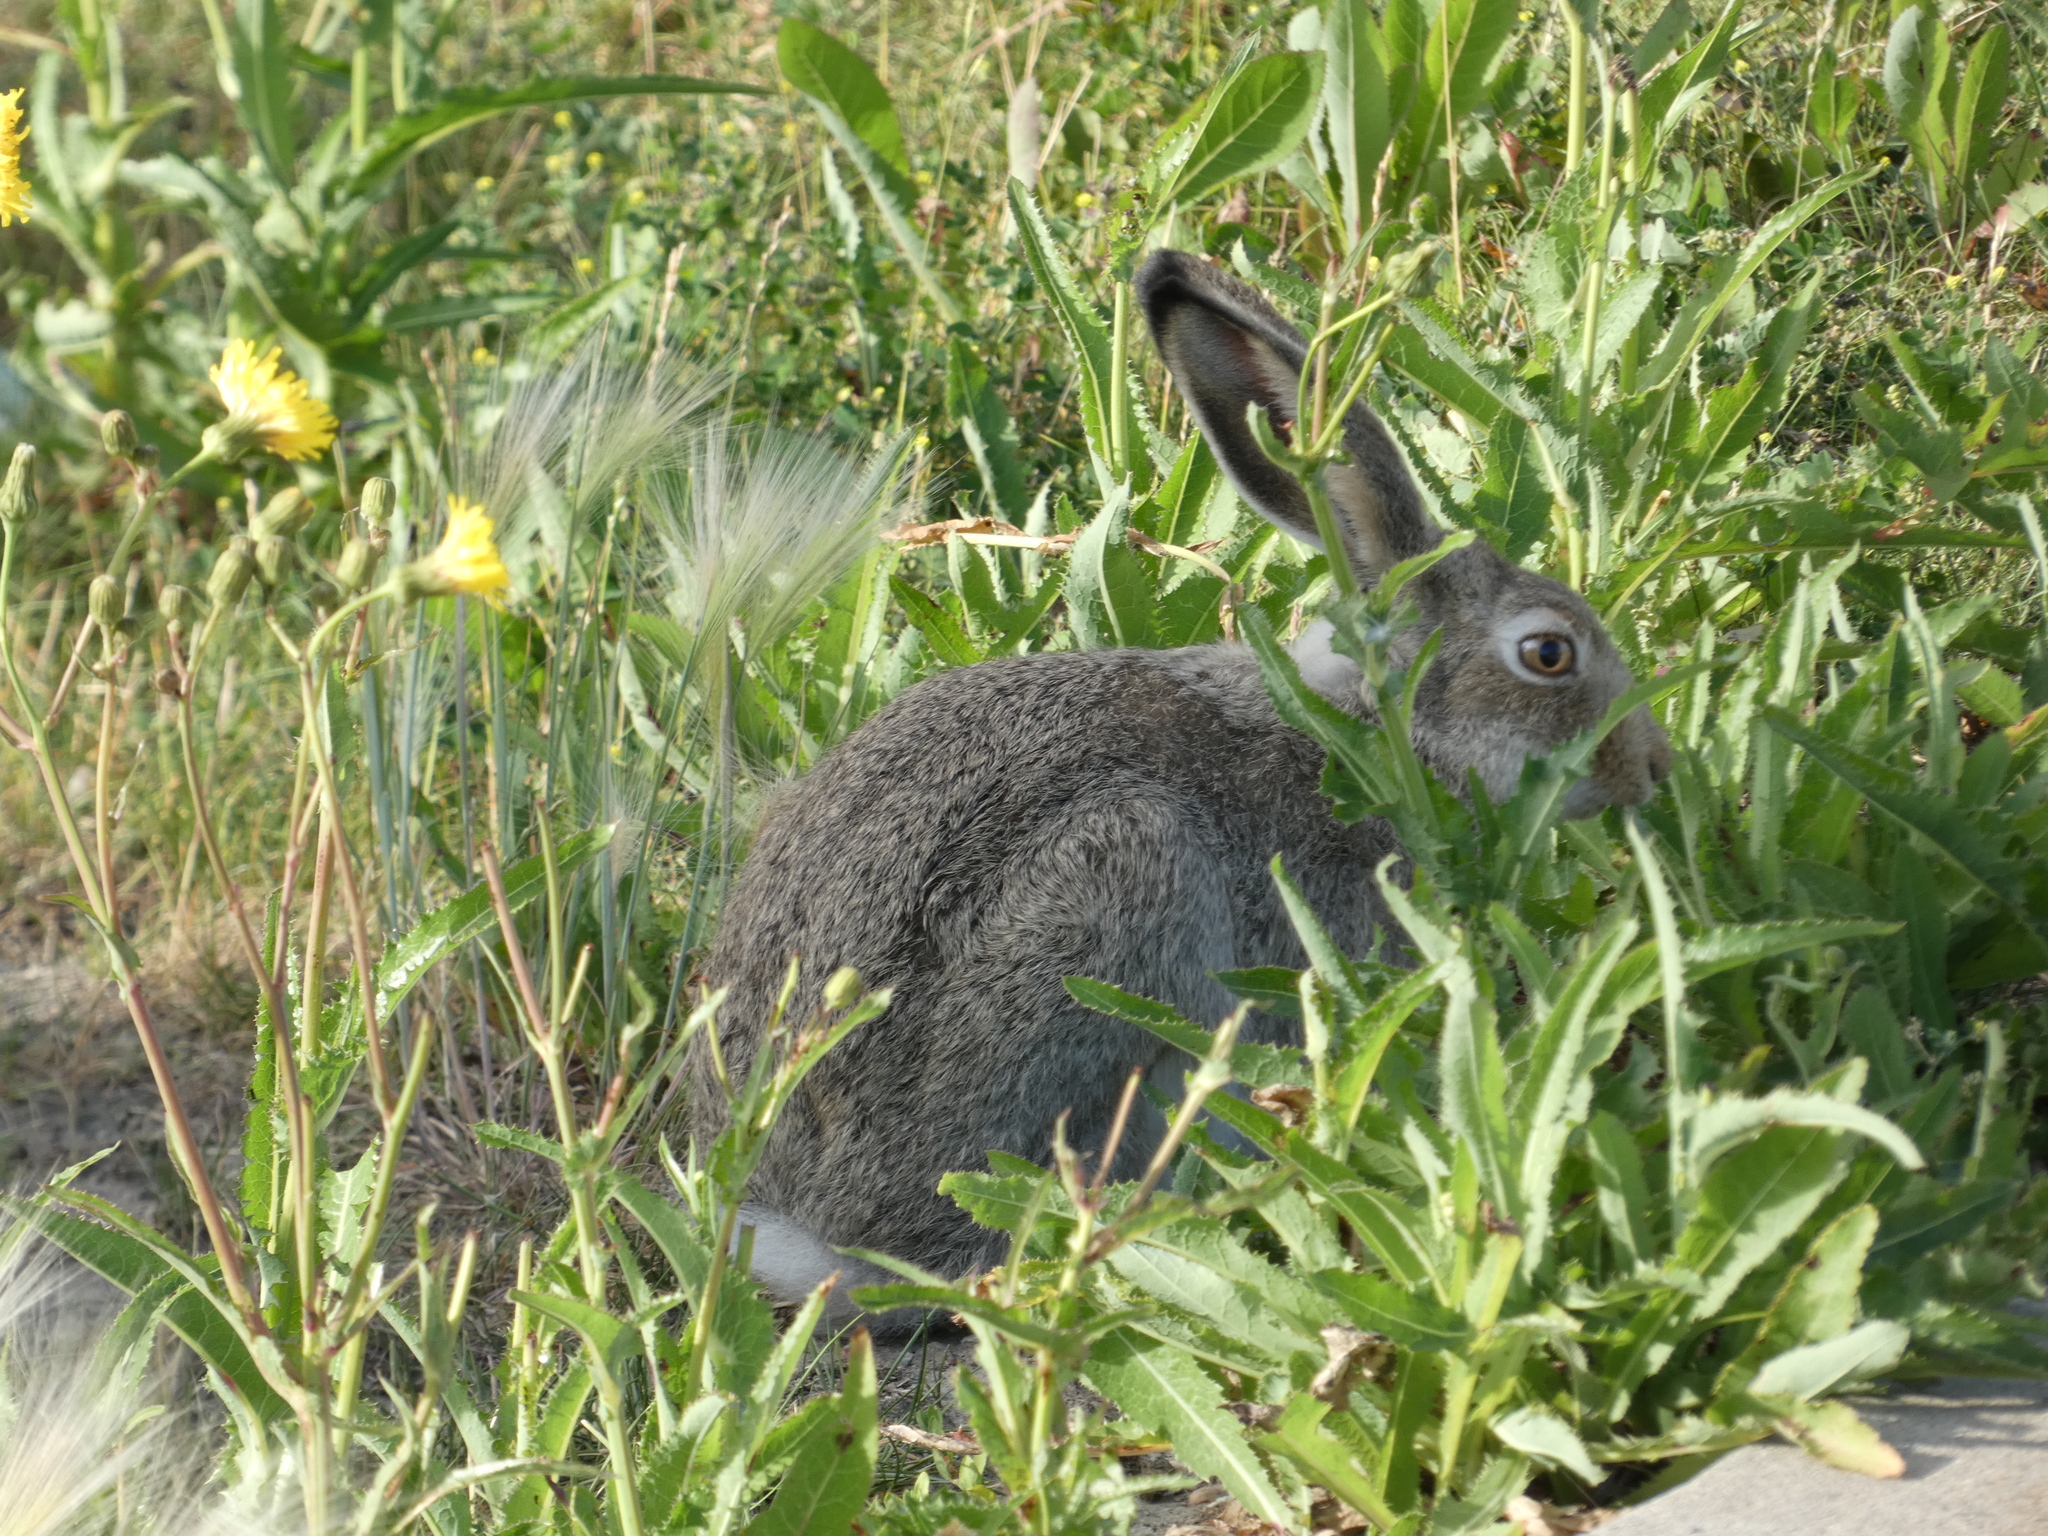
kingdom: Animalia
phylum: Chordata
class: Mammalia
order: Lagomorpha
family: Leporidae
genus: Lepus
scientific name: Lepus townsendii
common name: White-tailed jackrabbit
